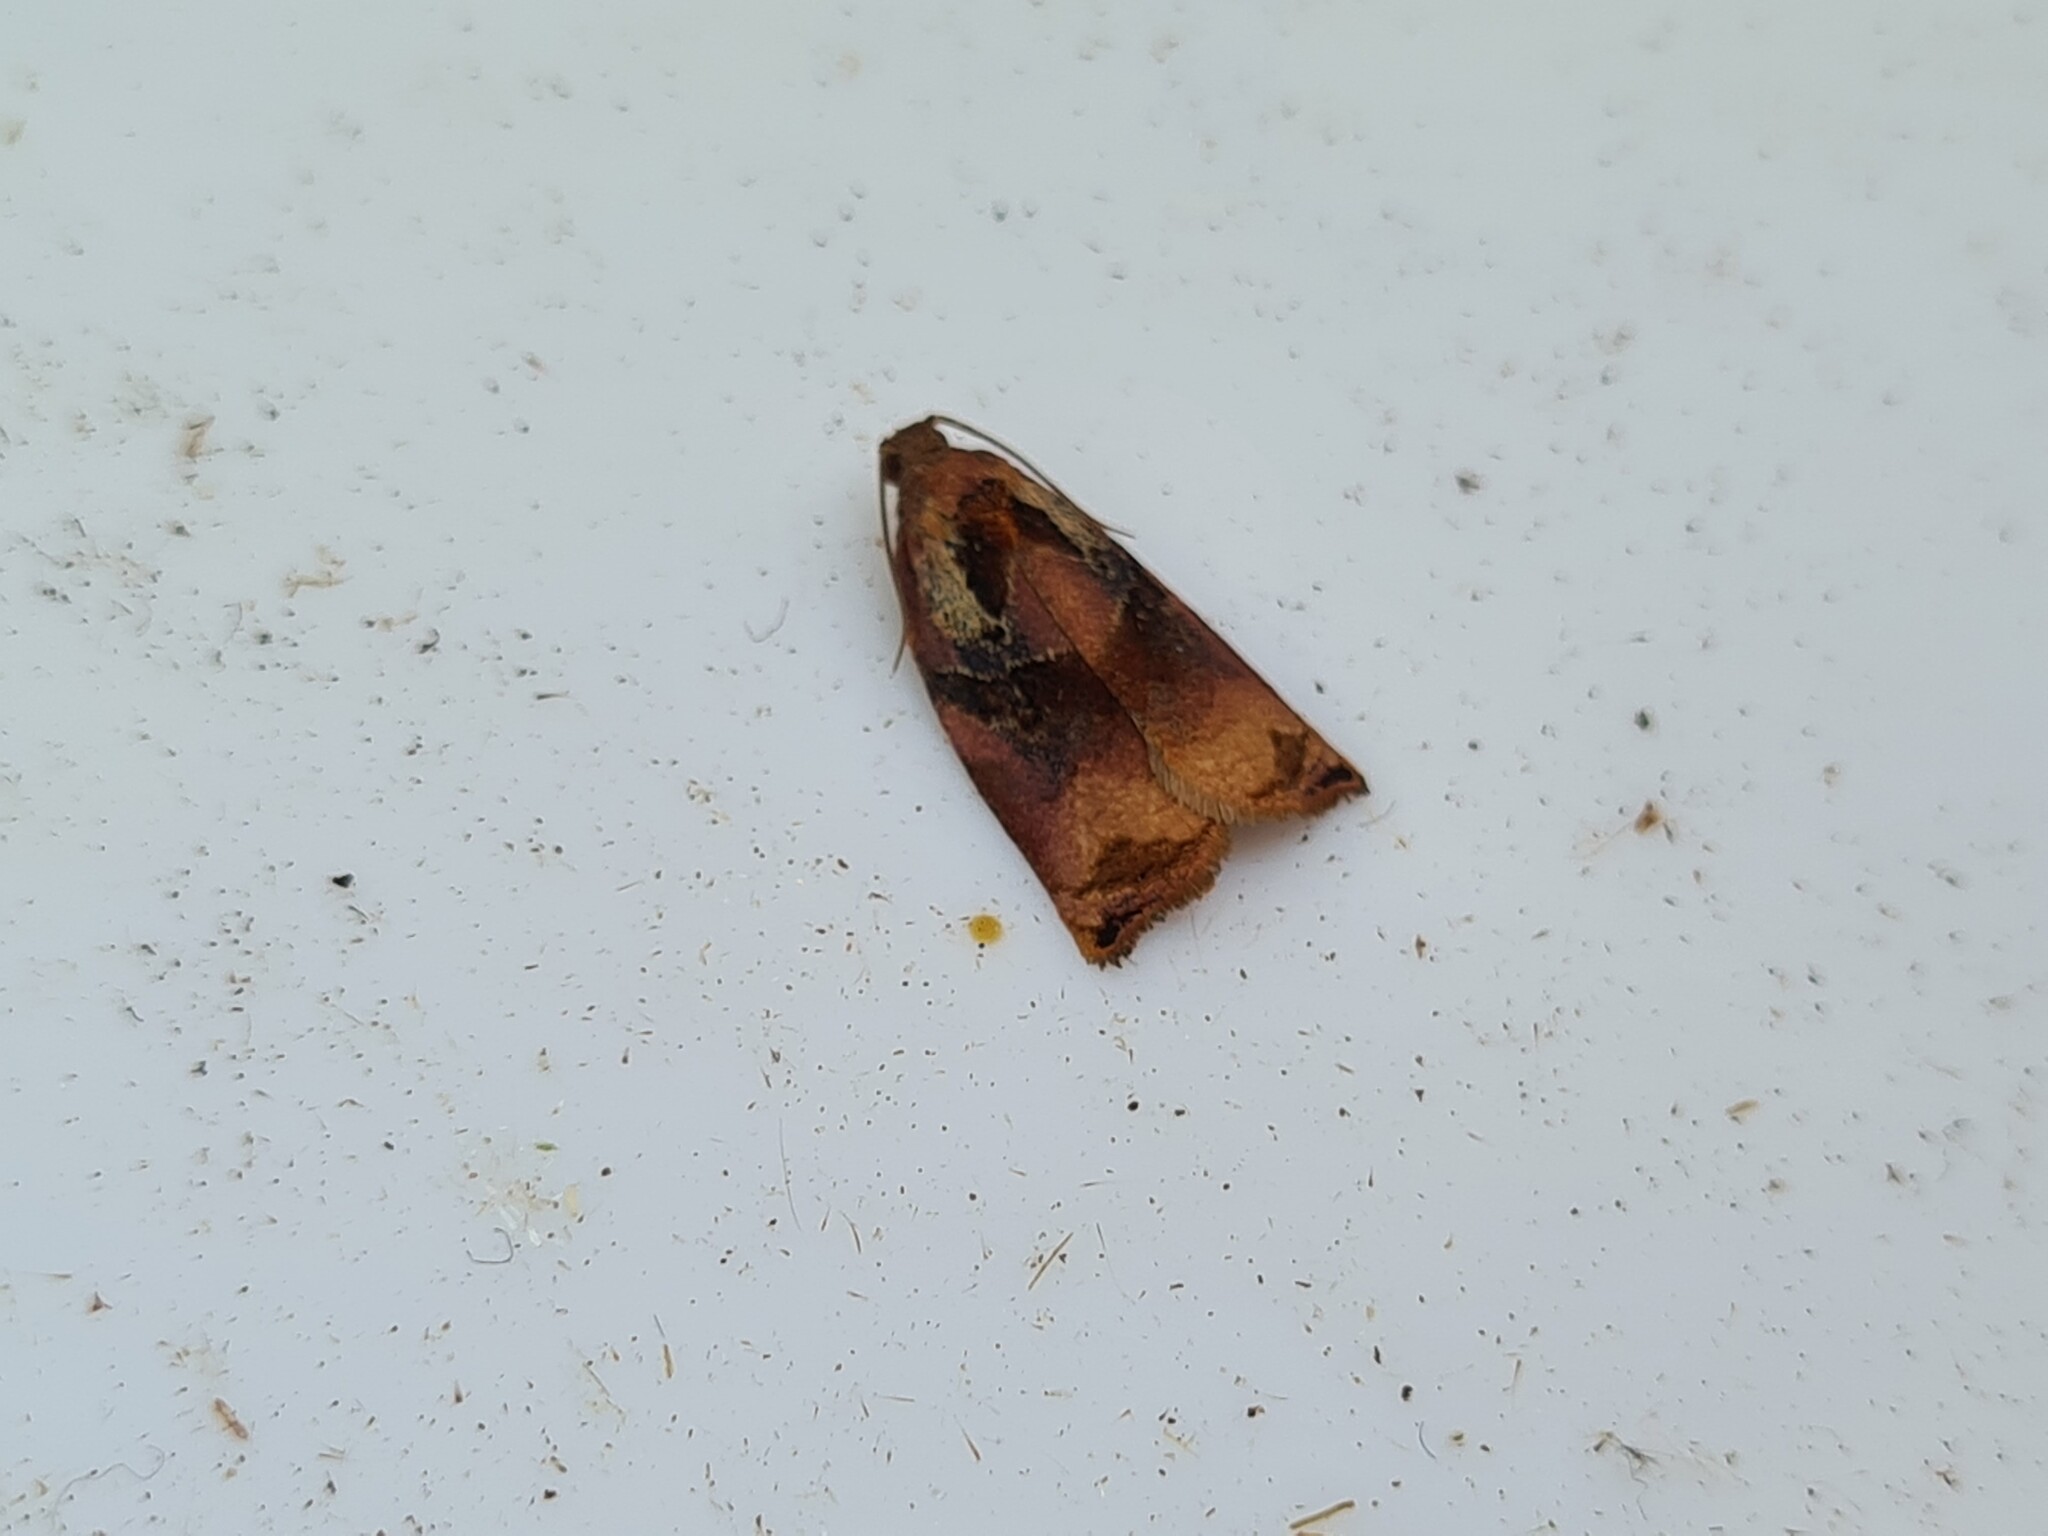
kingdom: Animalia
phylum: Arthropoda
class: Insecta
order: Lepidoptera
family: Tortricidae
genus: Archips
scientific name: Archips podana
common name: Large fruit-tree tortrix
